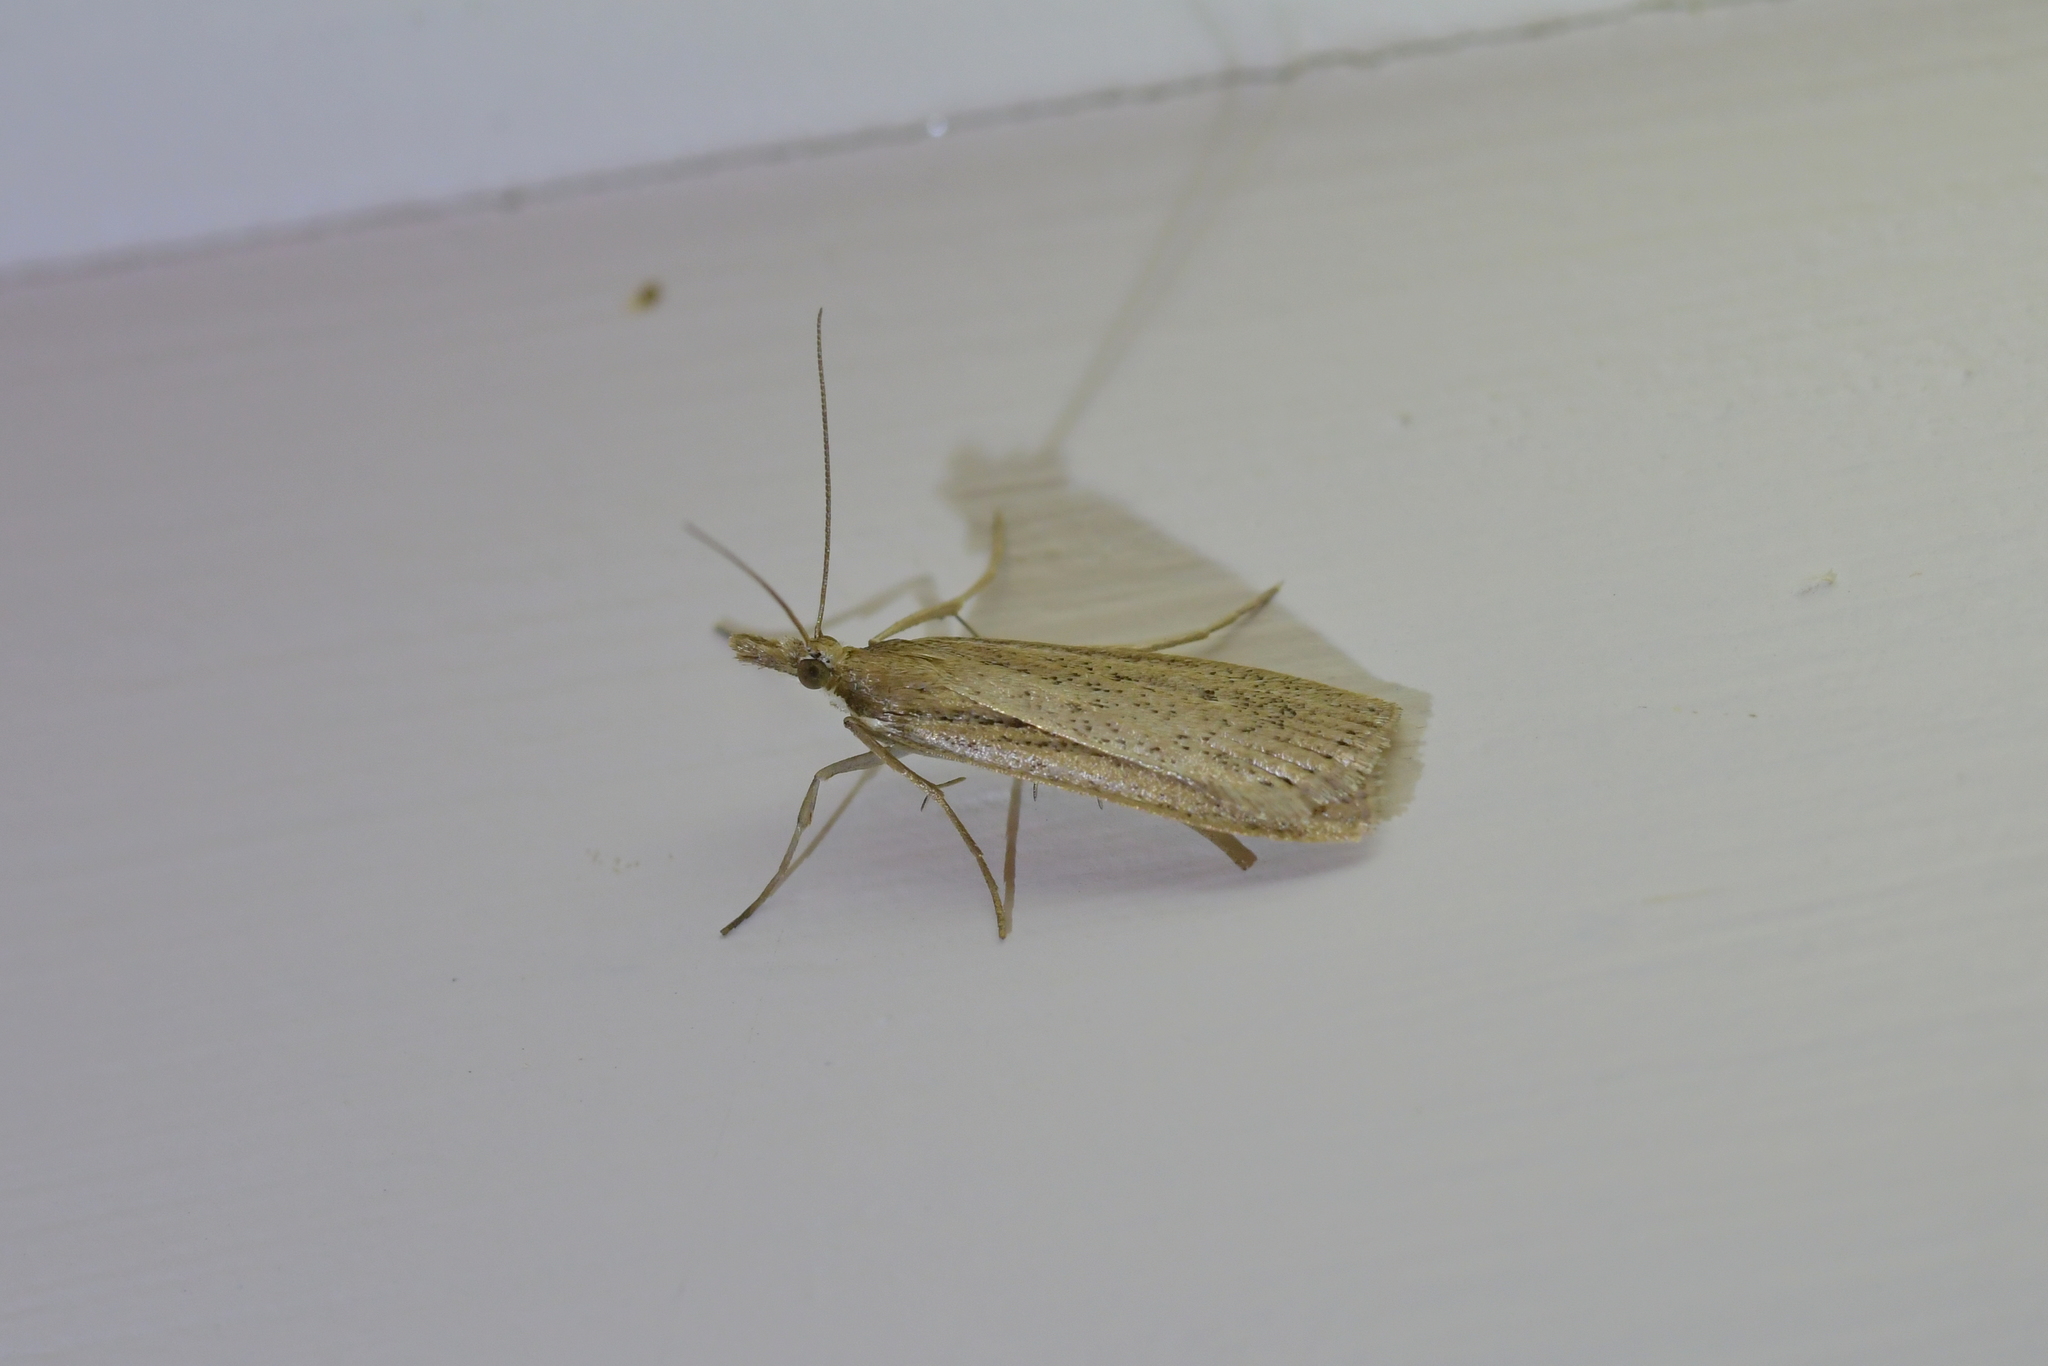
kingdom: Animalia
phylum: Arthropoda
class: Insecta
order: Lepidoptera
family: Crambidae
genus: Eudonia
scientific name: Eudonia sabulosella
